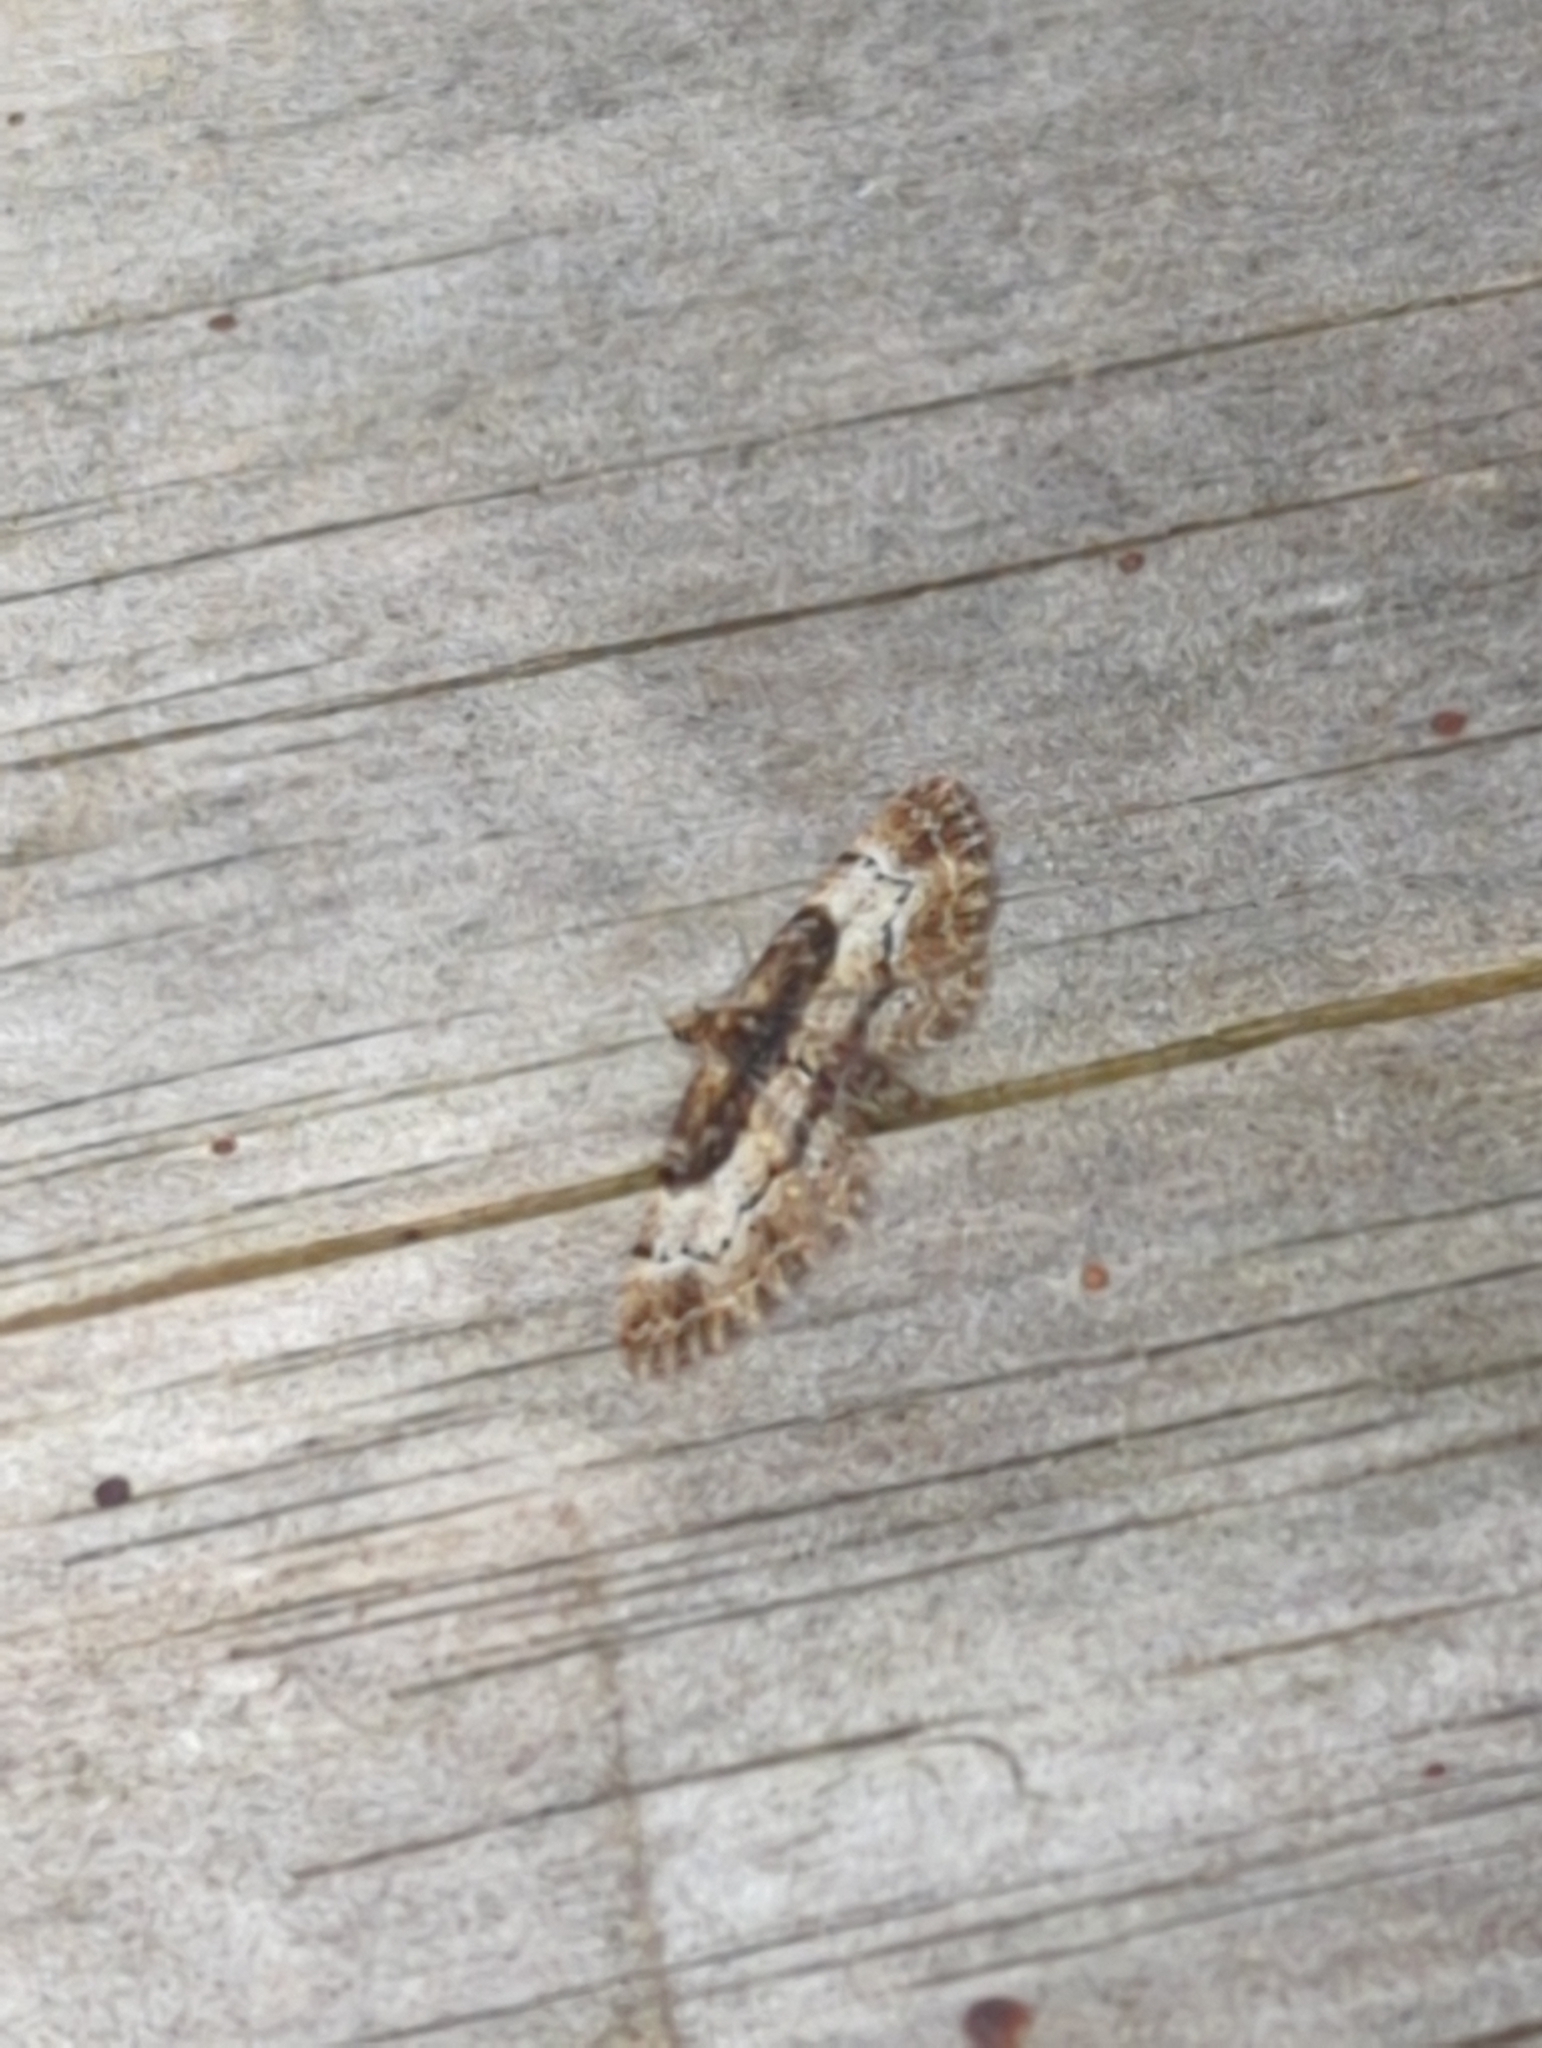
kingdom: Animalia
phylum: Arthropoda
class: Insecta
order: Lepidoptera
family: Geometridae
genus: Chloroclystis
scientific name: Chloroclystis approximata
